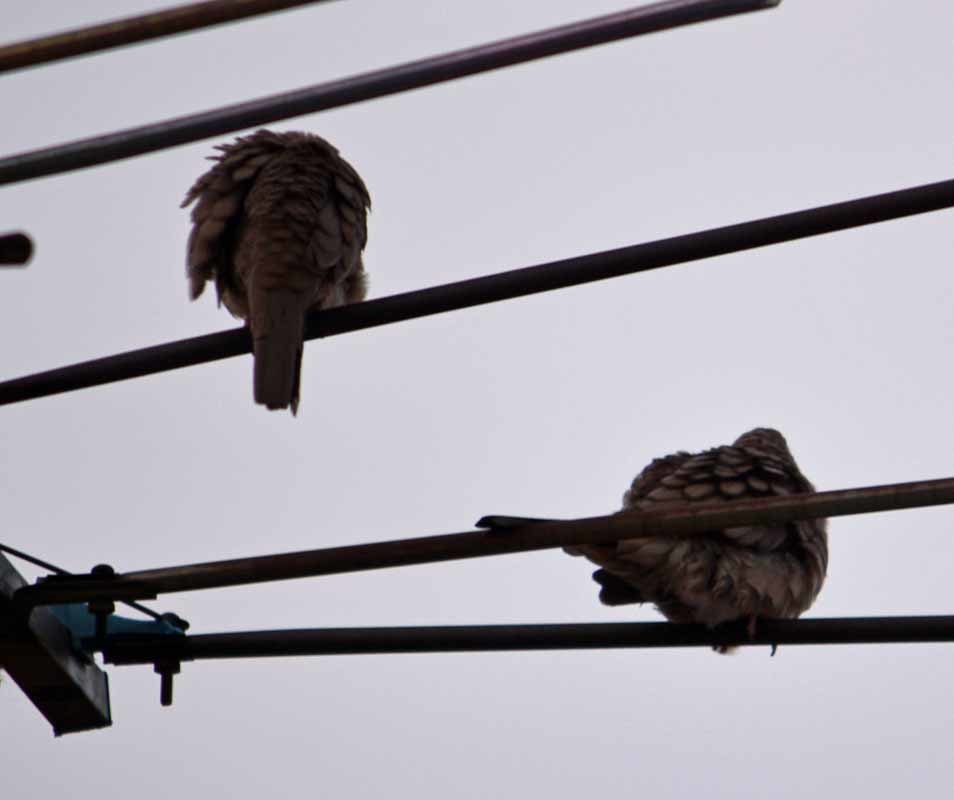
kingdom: Animalia
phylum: Chordata
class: Aves
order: Columbiformes
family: Columbidae
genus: Columbina
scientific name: Columbina inca
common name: Inca dove
